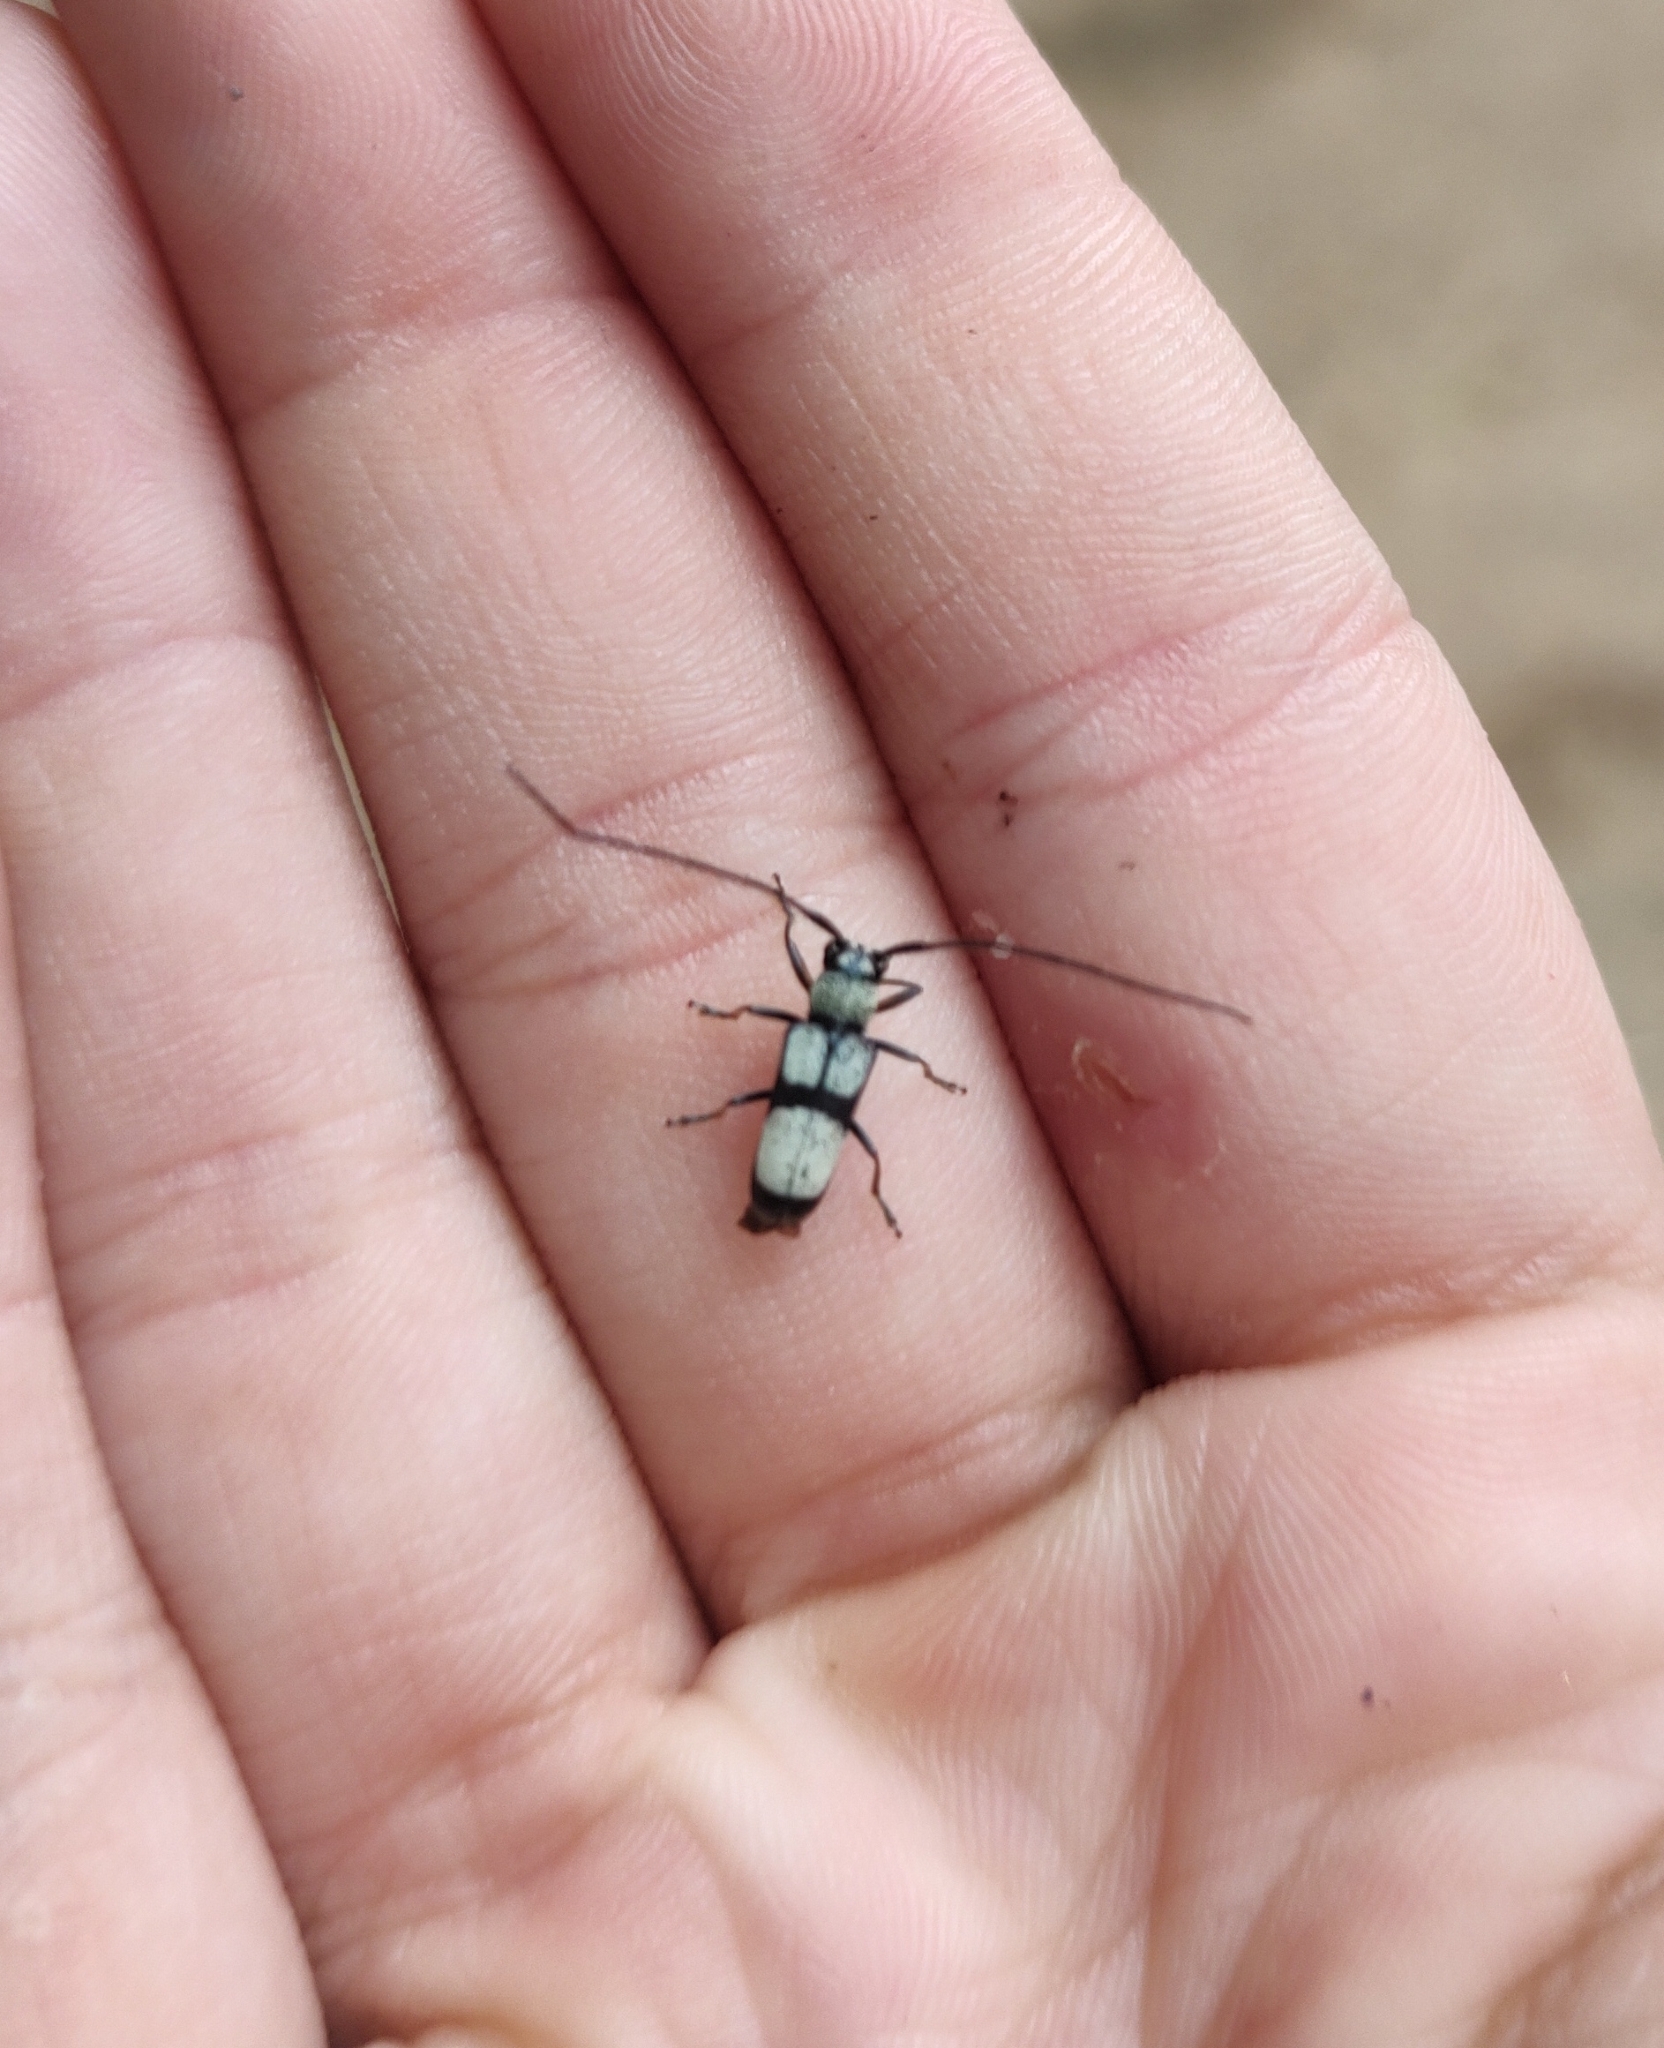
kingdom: Animalia
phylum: Arthropoda
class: Insecta
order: Coleoptera
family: Cerambycidae
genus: Adesmus
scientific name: Adesmus clathratus
